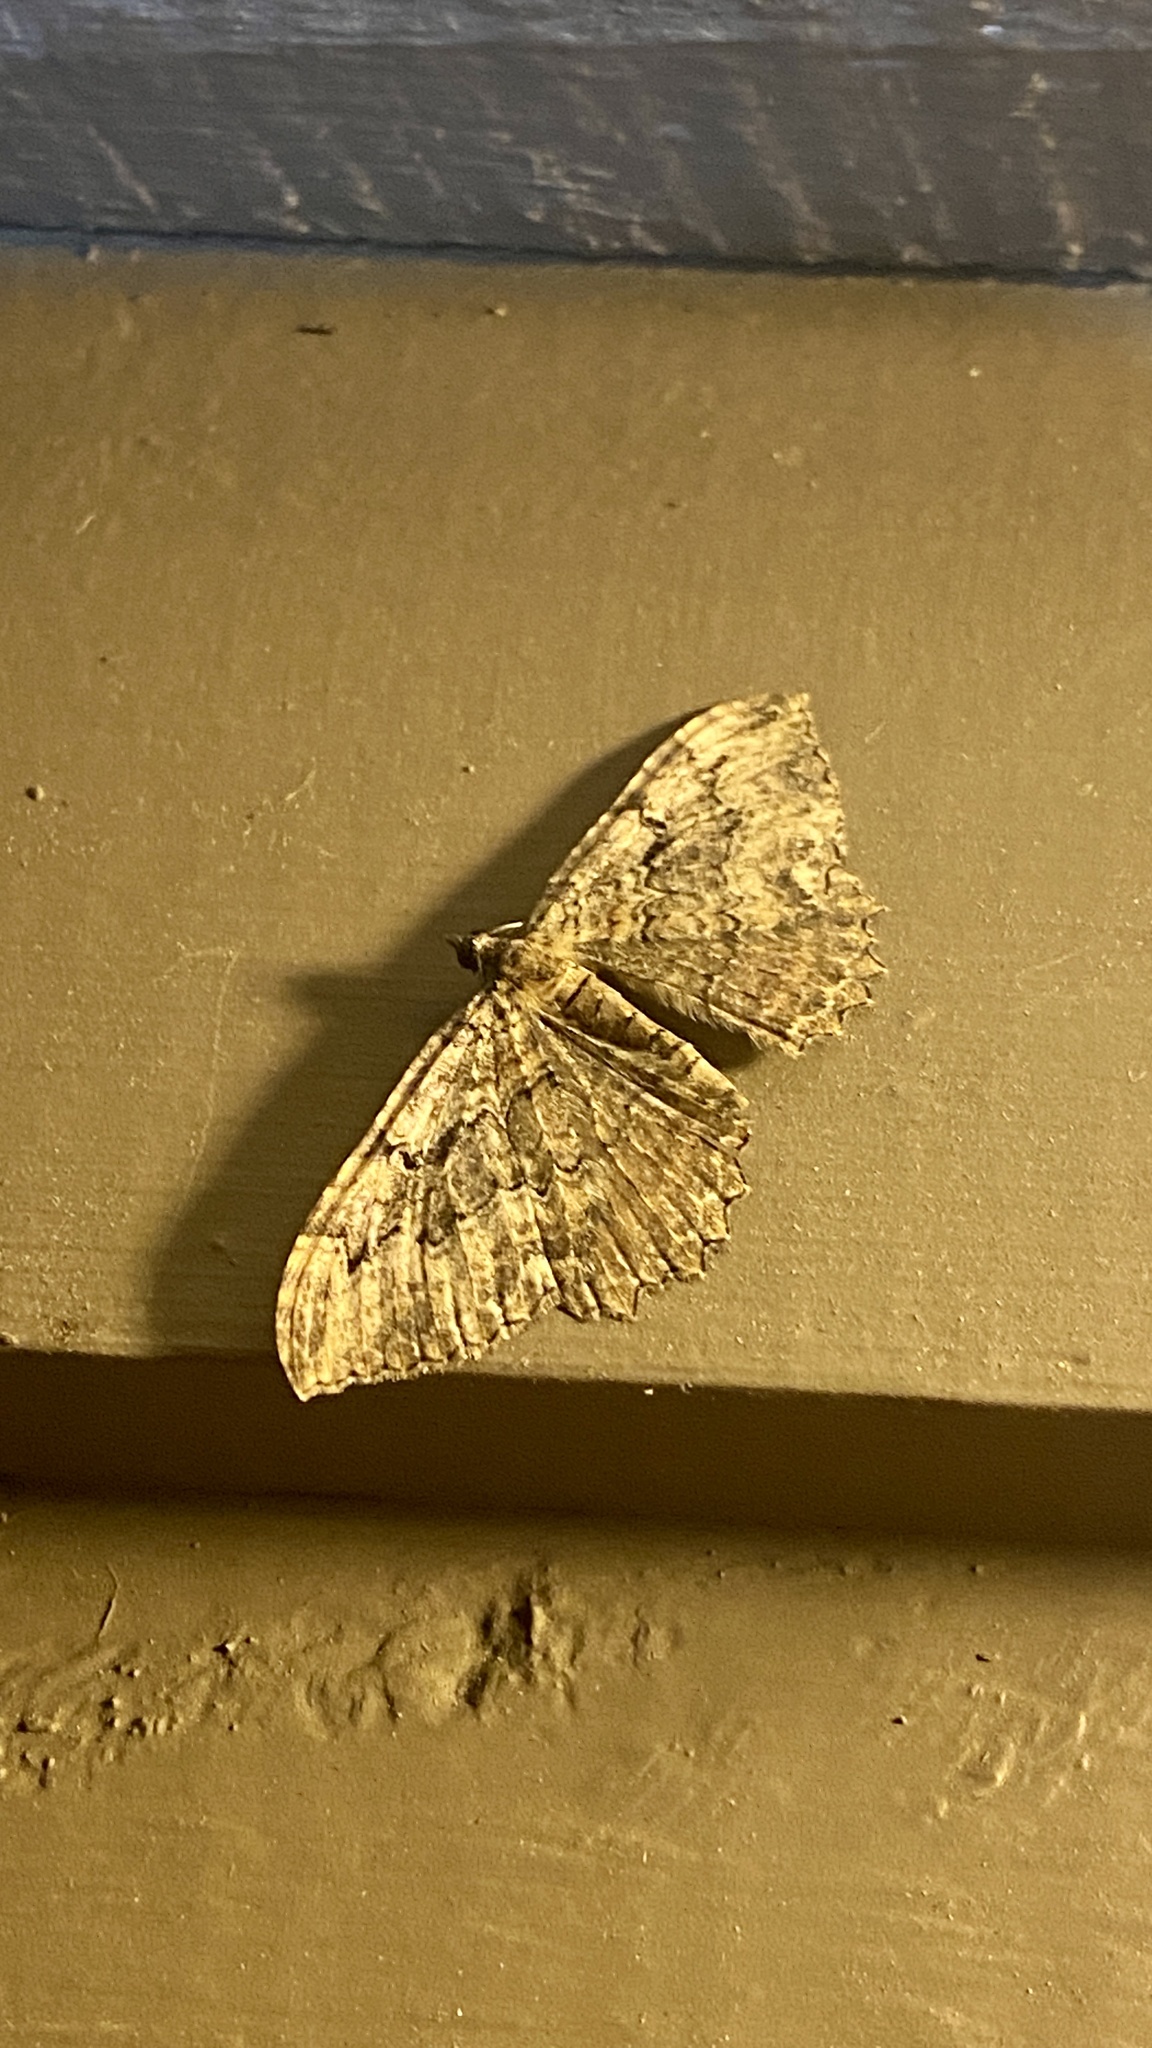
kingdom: Animalia
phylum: Arthropoda
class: Insecta
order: Lepidoptera
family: Geometridae
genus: Rheumaptera
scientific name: Rheumaptera
